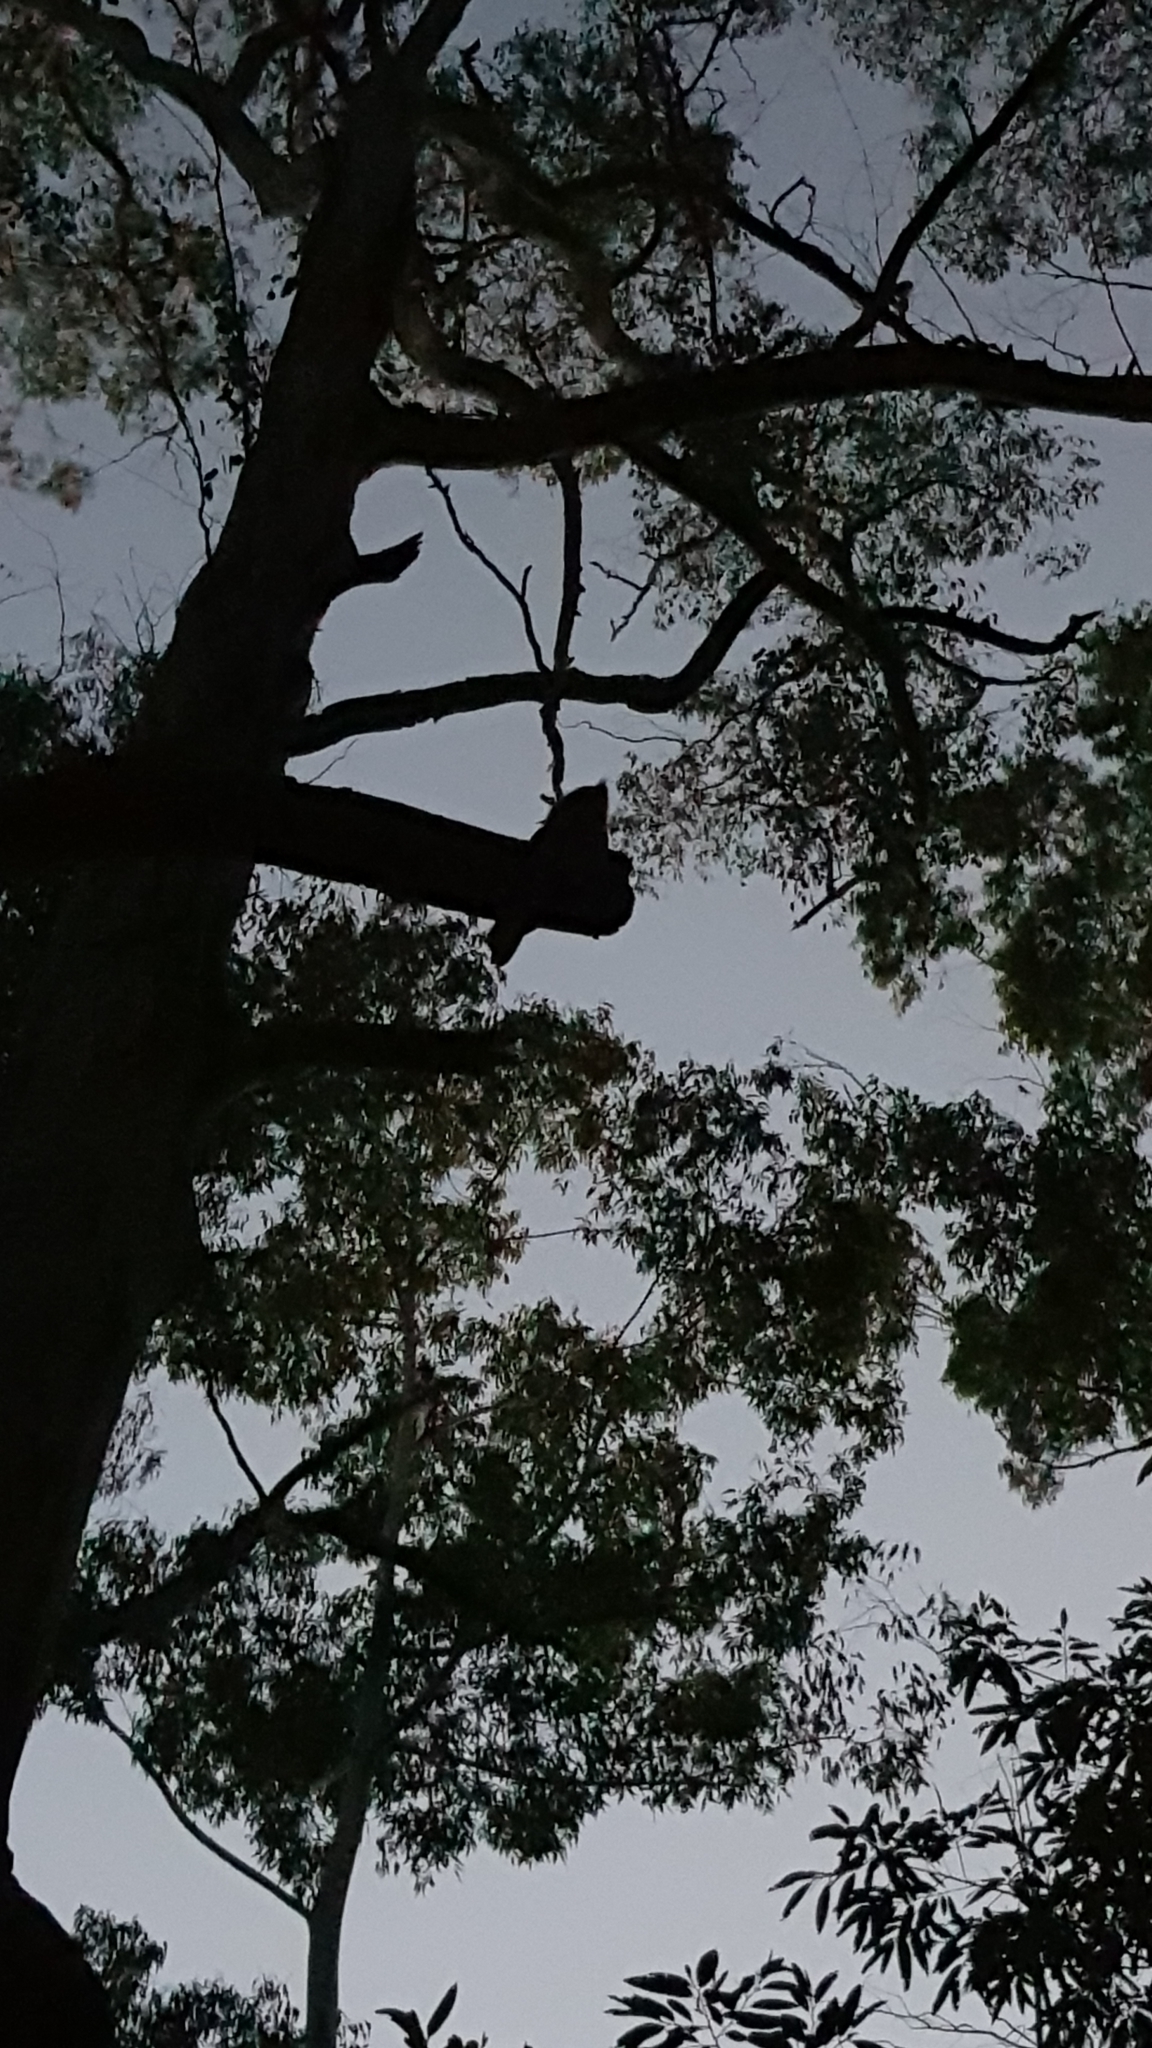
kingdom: Animalia
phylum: Chordata
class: Aves
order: Caprimulgiformes
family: Podargidae
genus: Podargus
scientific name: Podargus strigoides
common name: Tawny frogmouth
